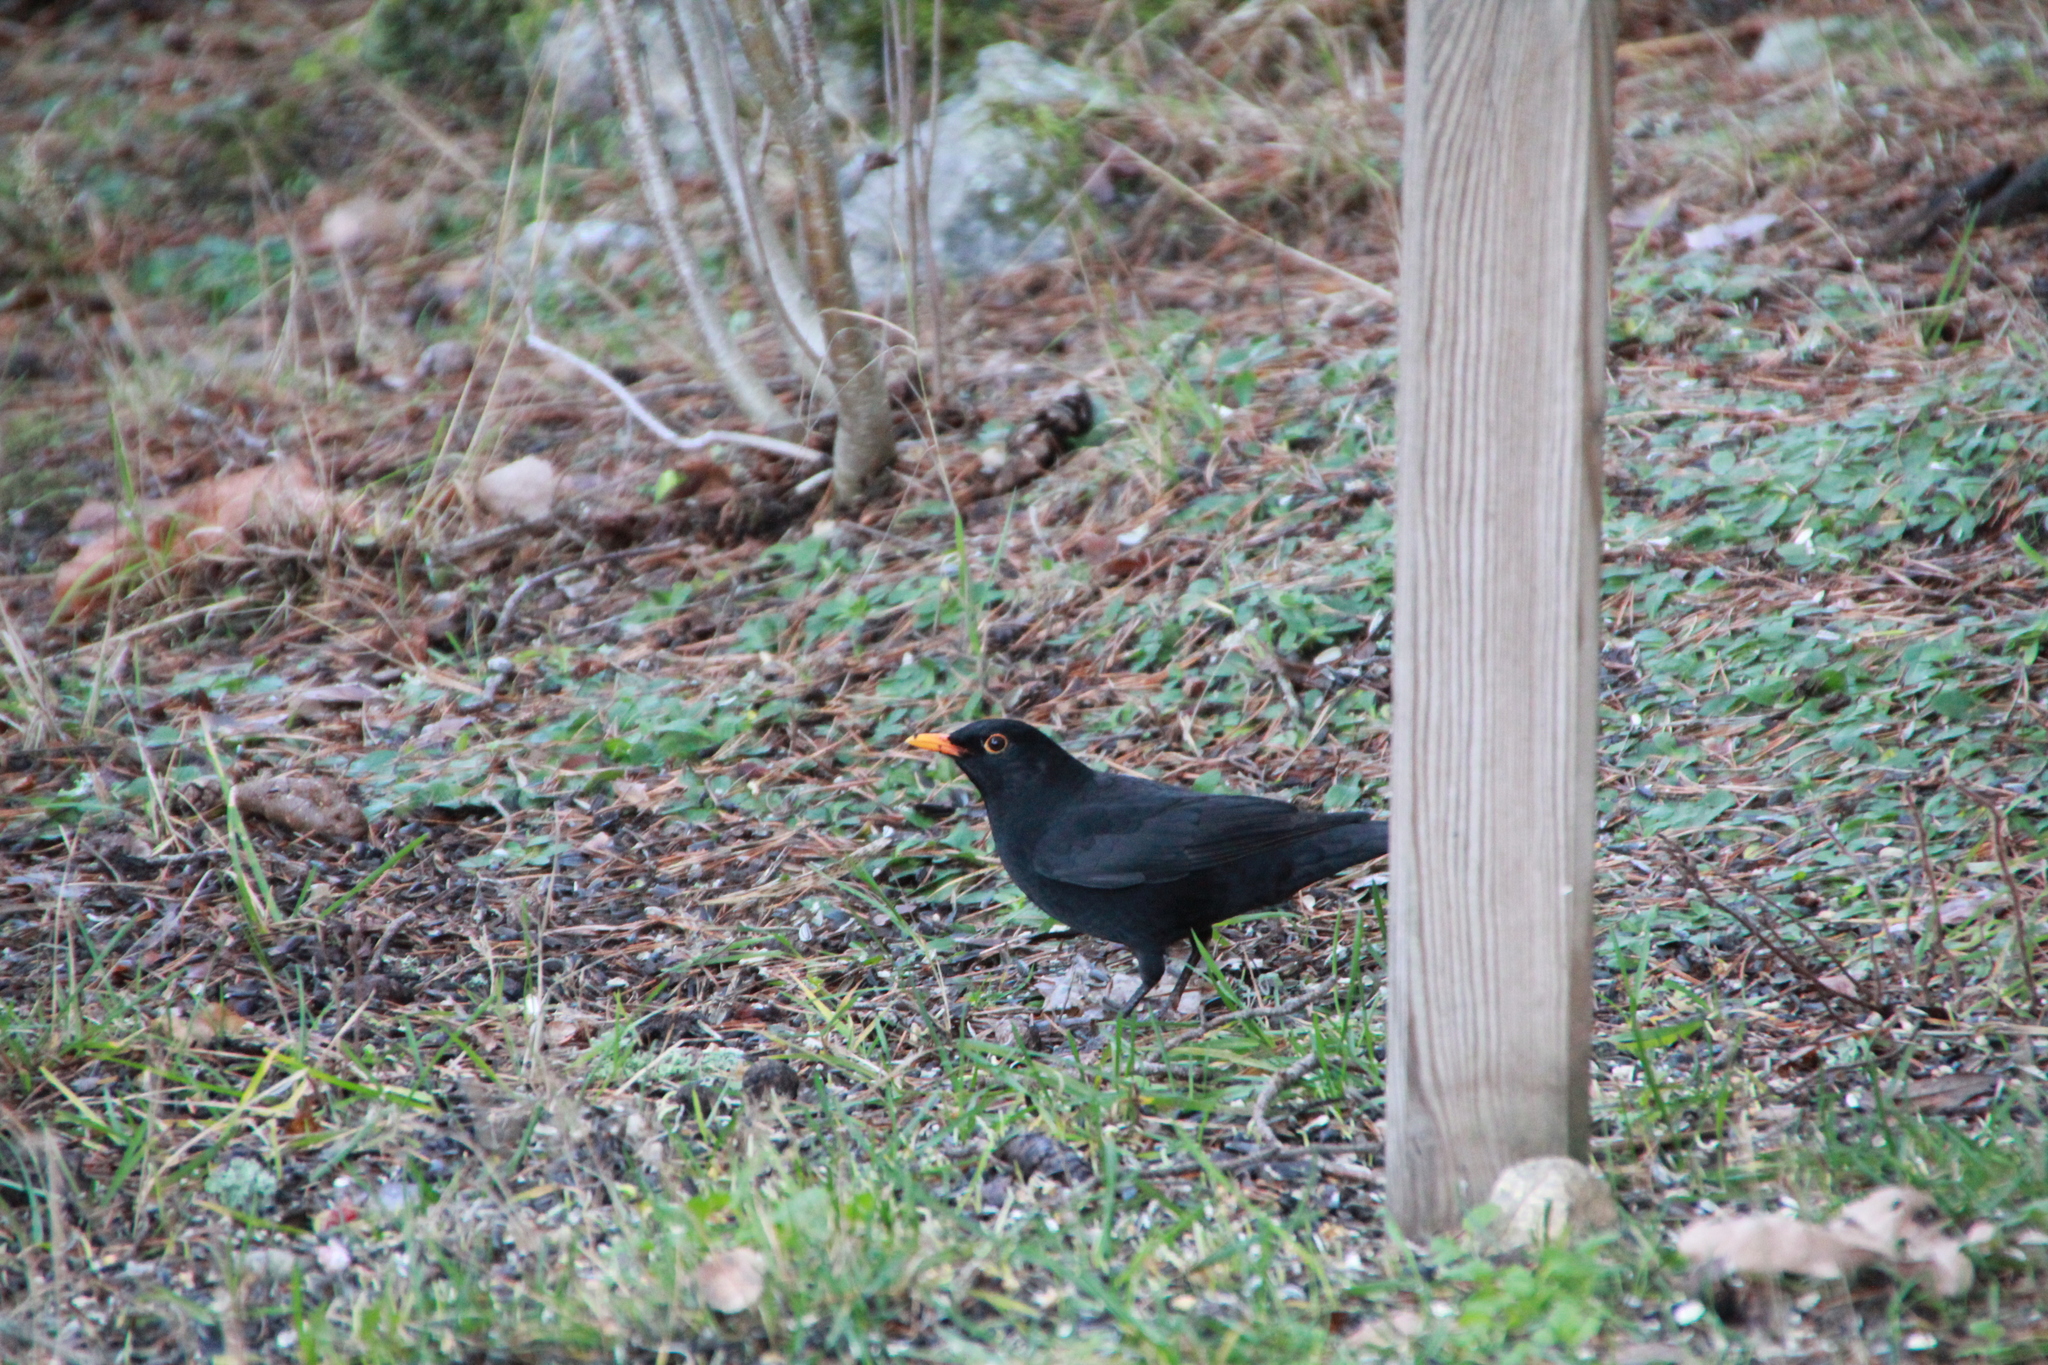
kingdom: Animalia
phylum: Chordata
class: Aves
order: Passeriformes
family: Turdidae
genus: Turdus
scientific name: Turdus merula
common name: Common blackbird
